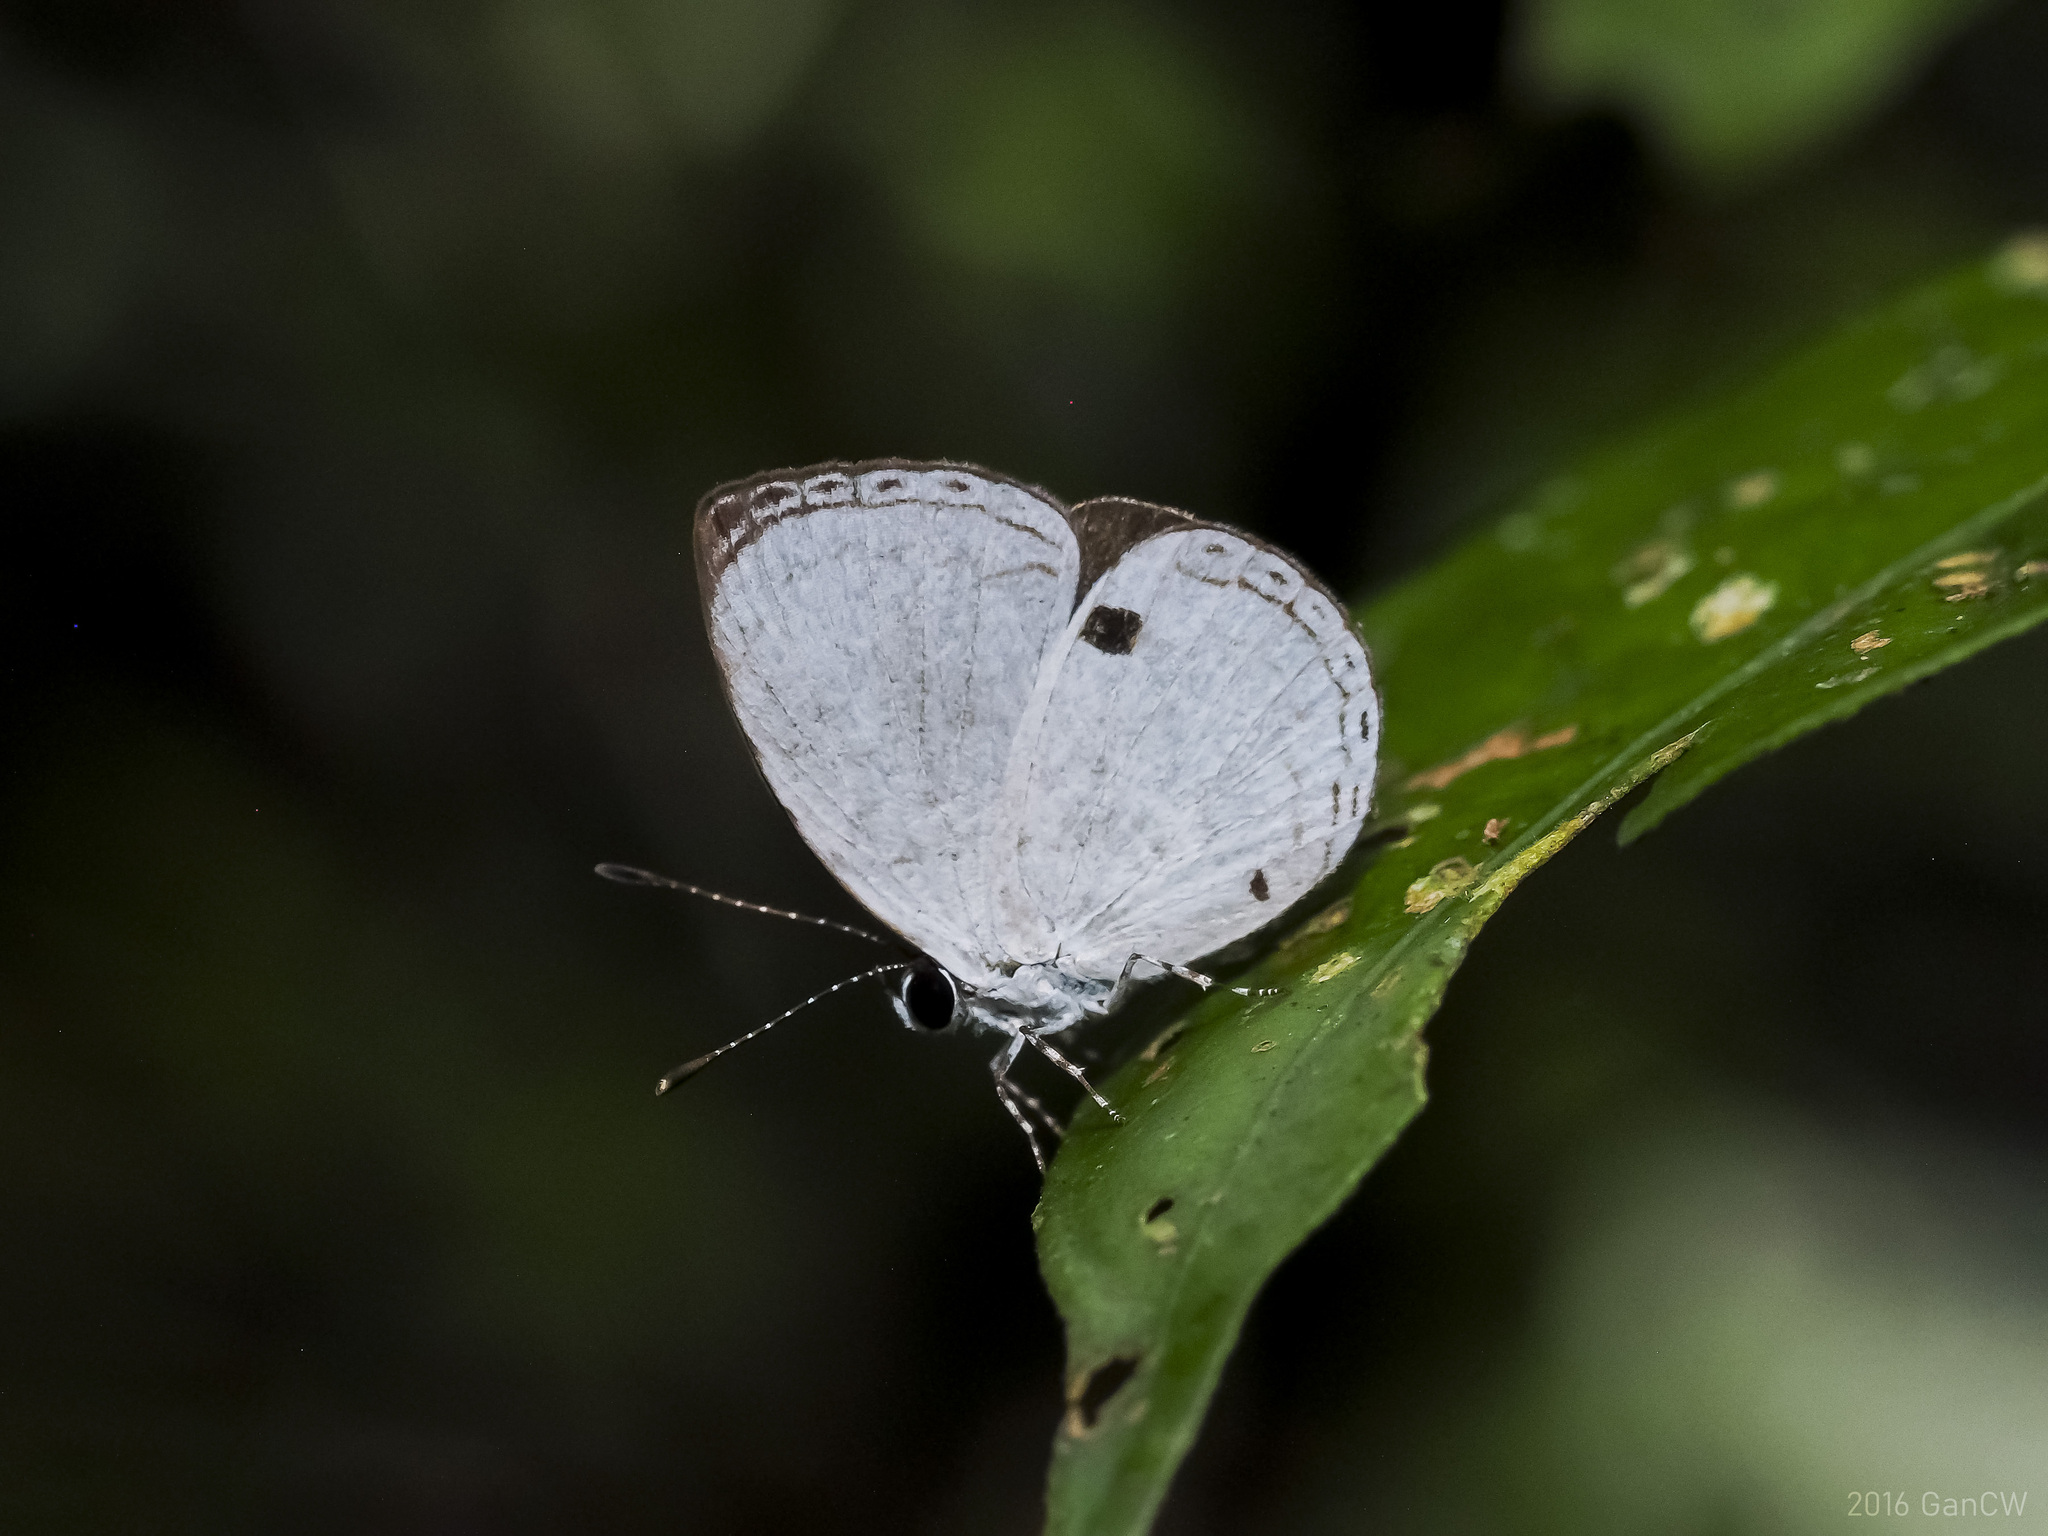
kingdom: Animalia
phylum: Arthropoda
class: Insecta
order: Lepidoptera
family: Lycaenidae
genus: Neopithecops
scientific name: Neopithecops zalmora
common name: Quaker
